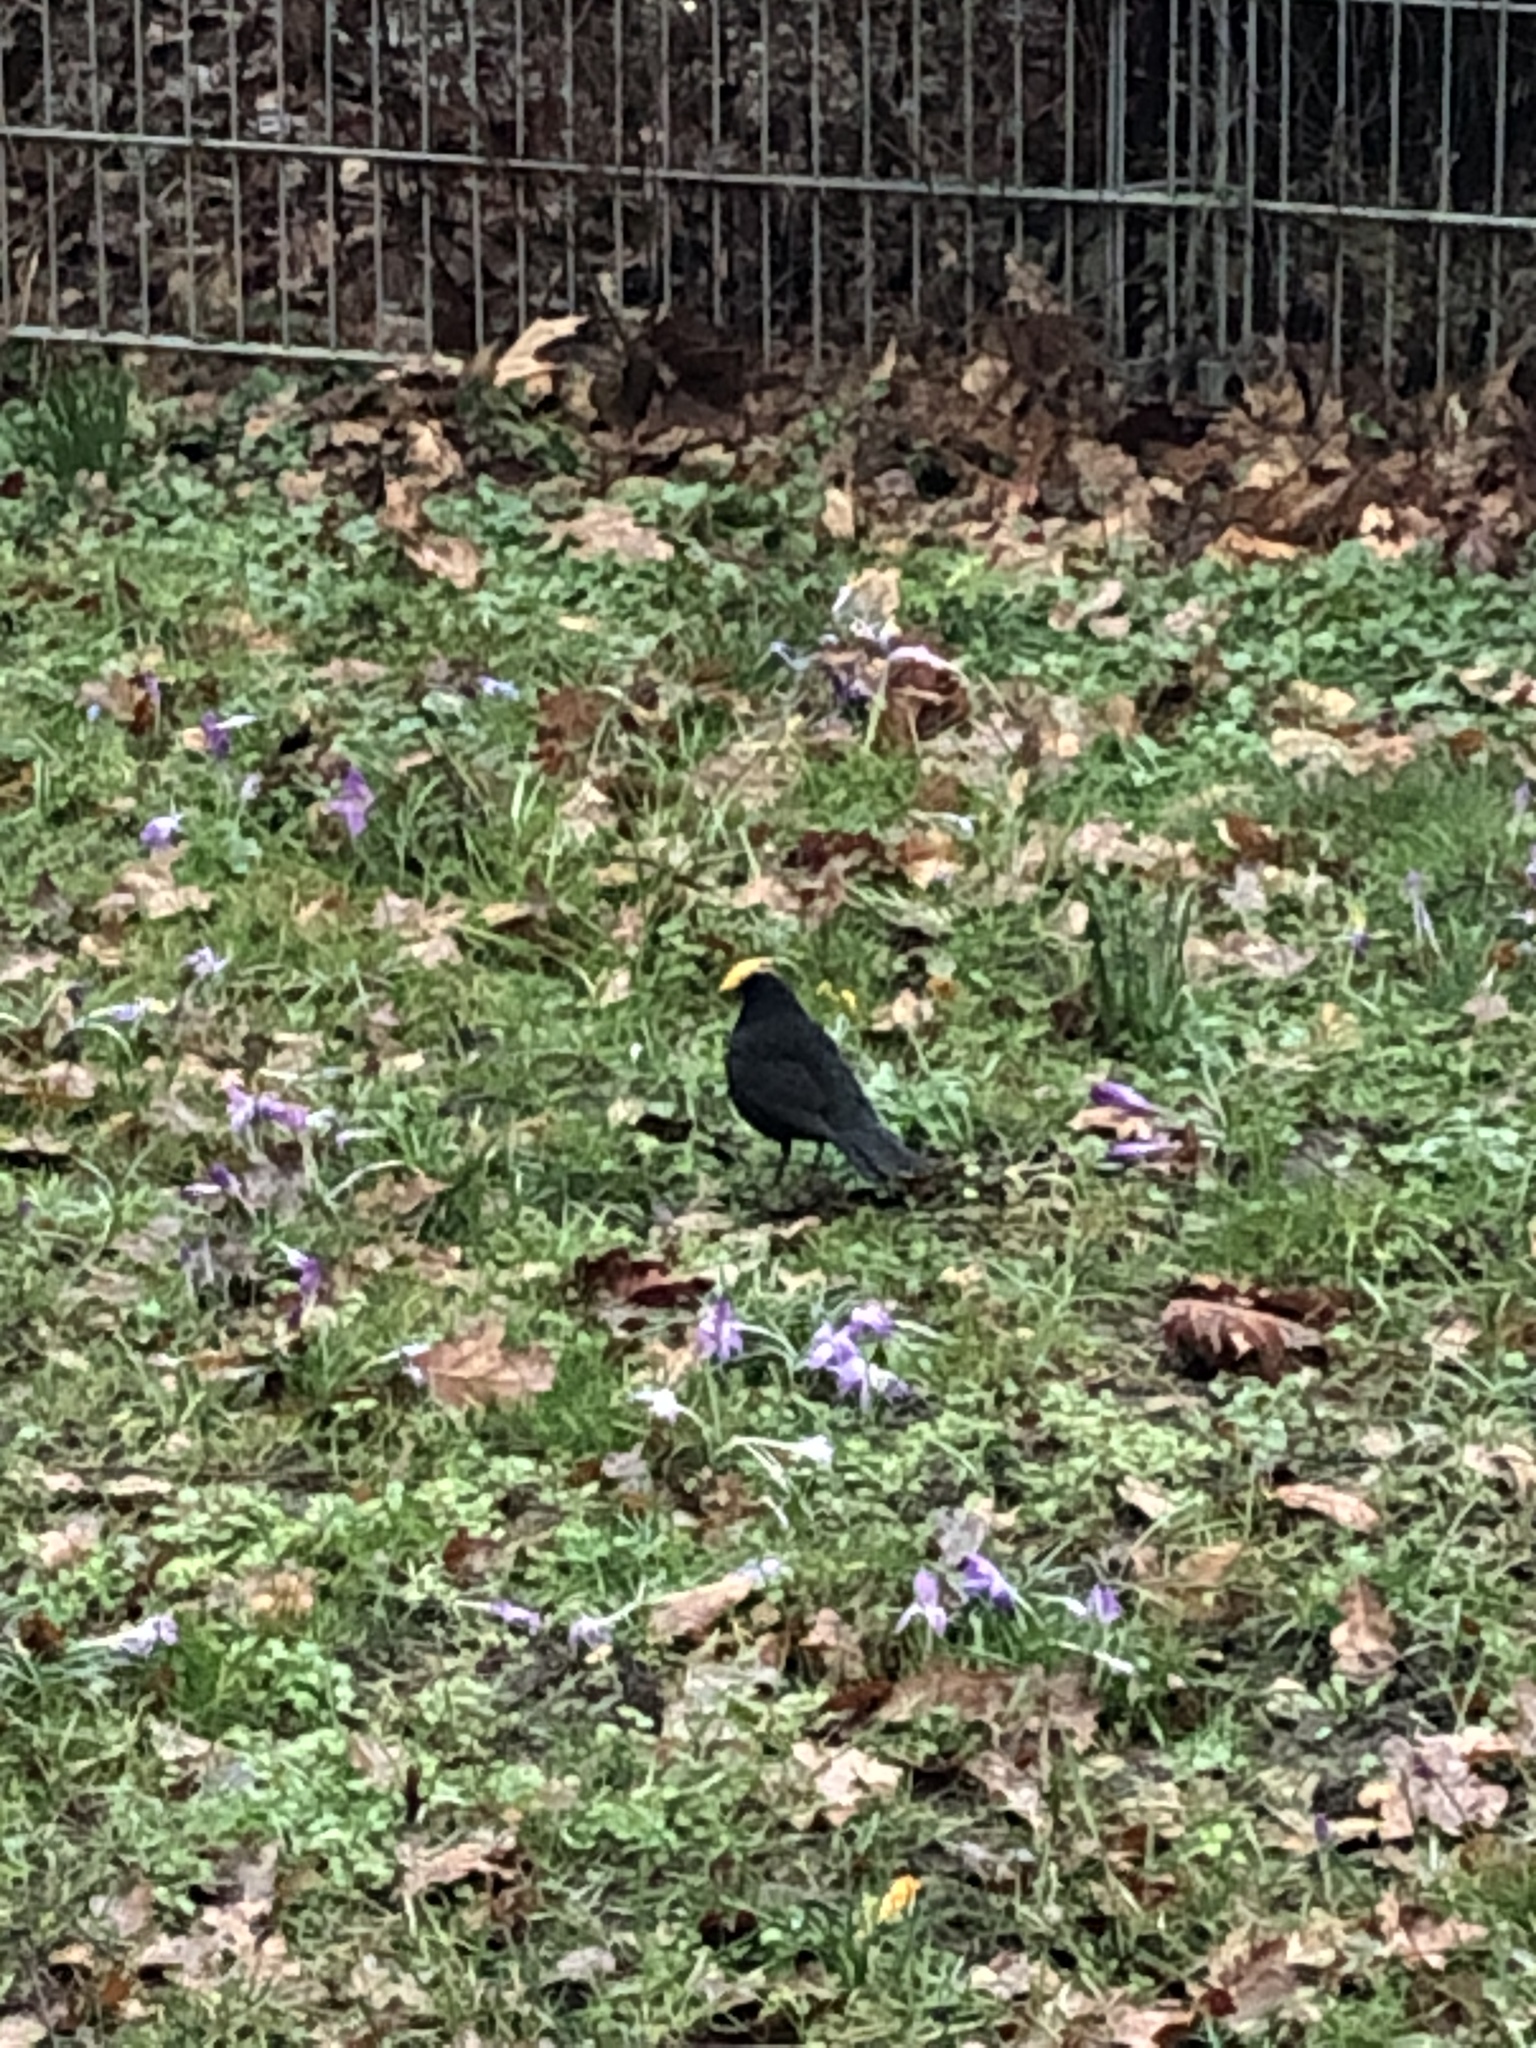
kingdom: Animalia
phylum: Chordata
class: Aves
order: Passeriformes
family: Turdidae
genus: Turdus
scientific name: Turdus merula
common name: Common blackbird
